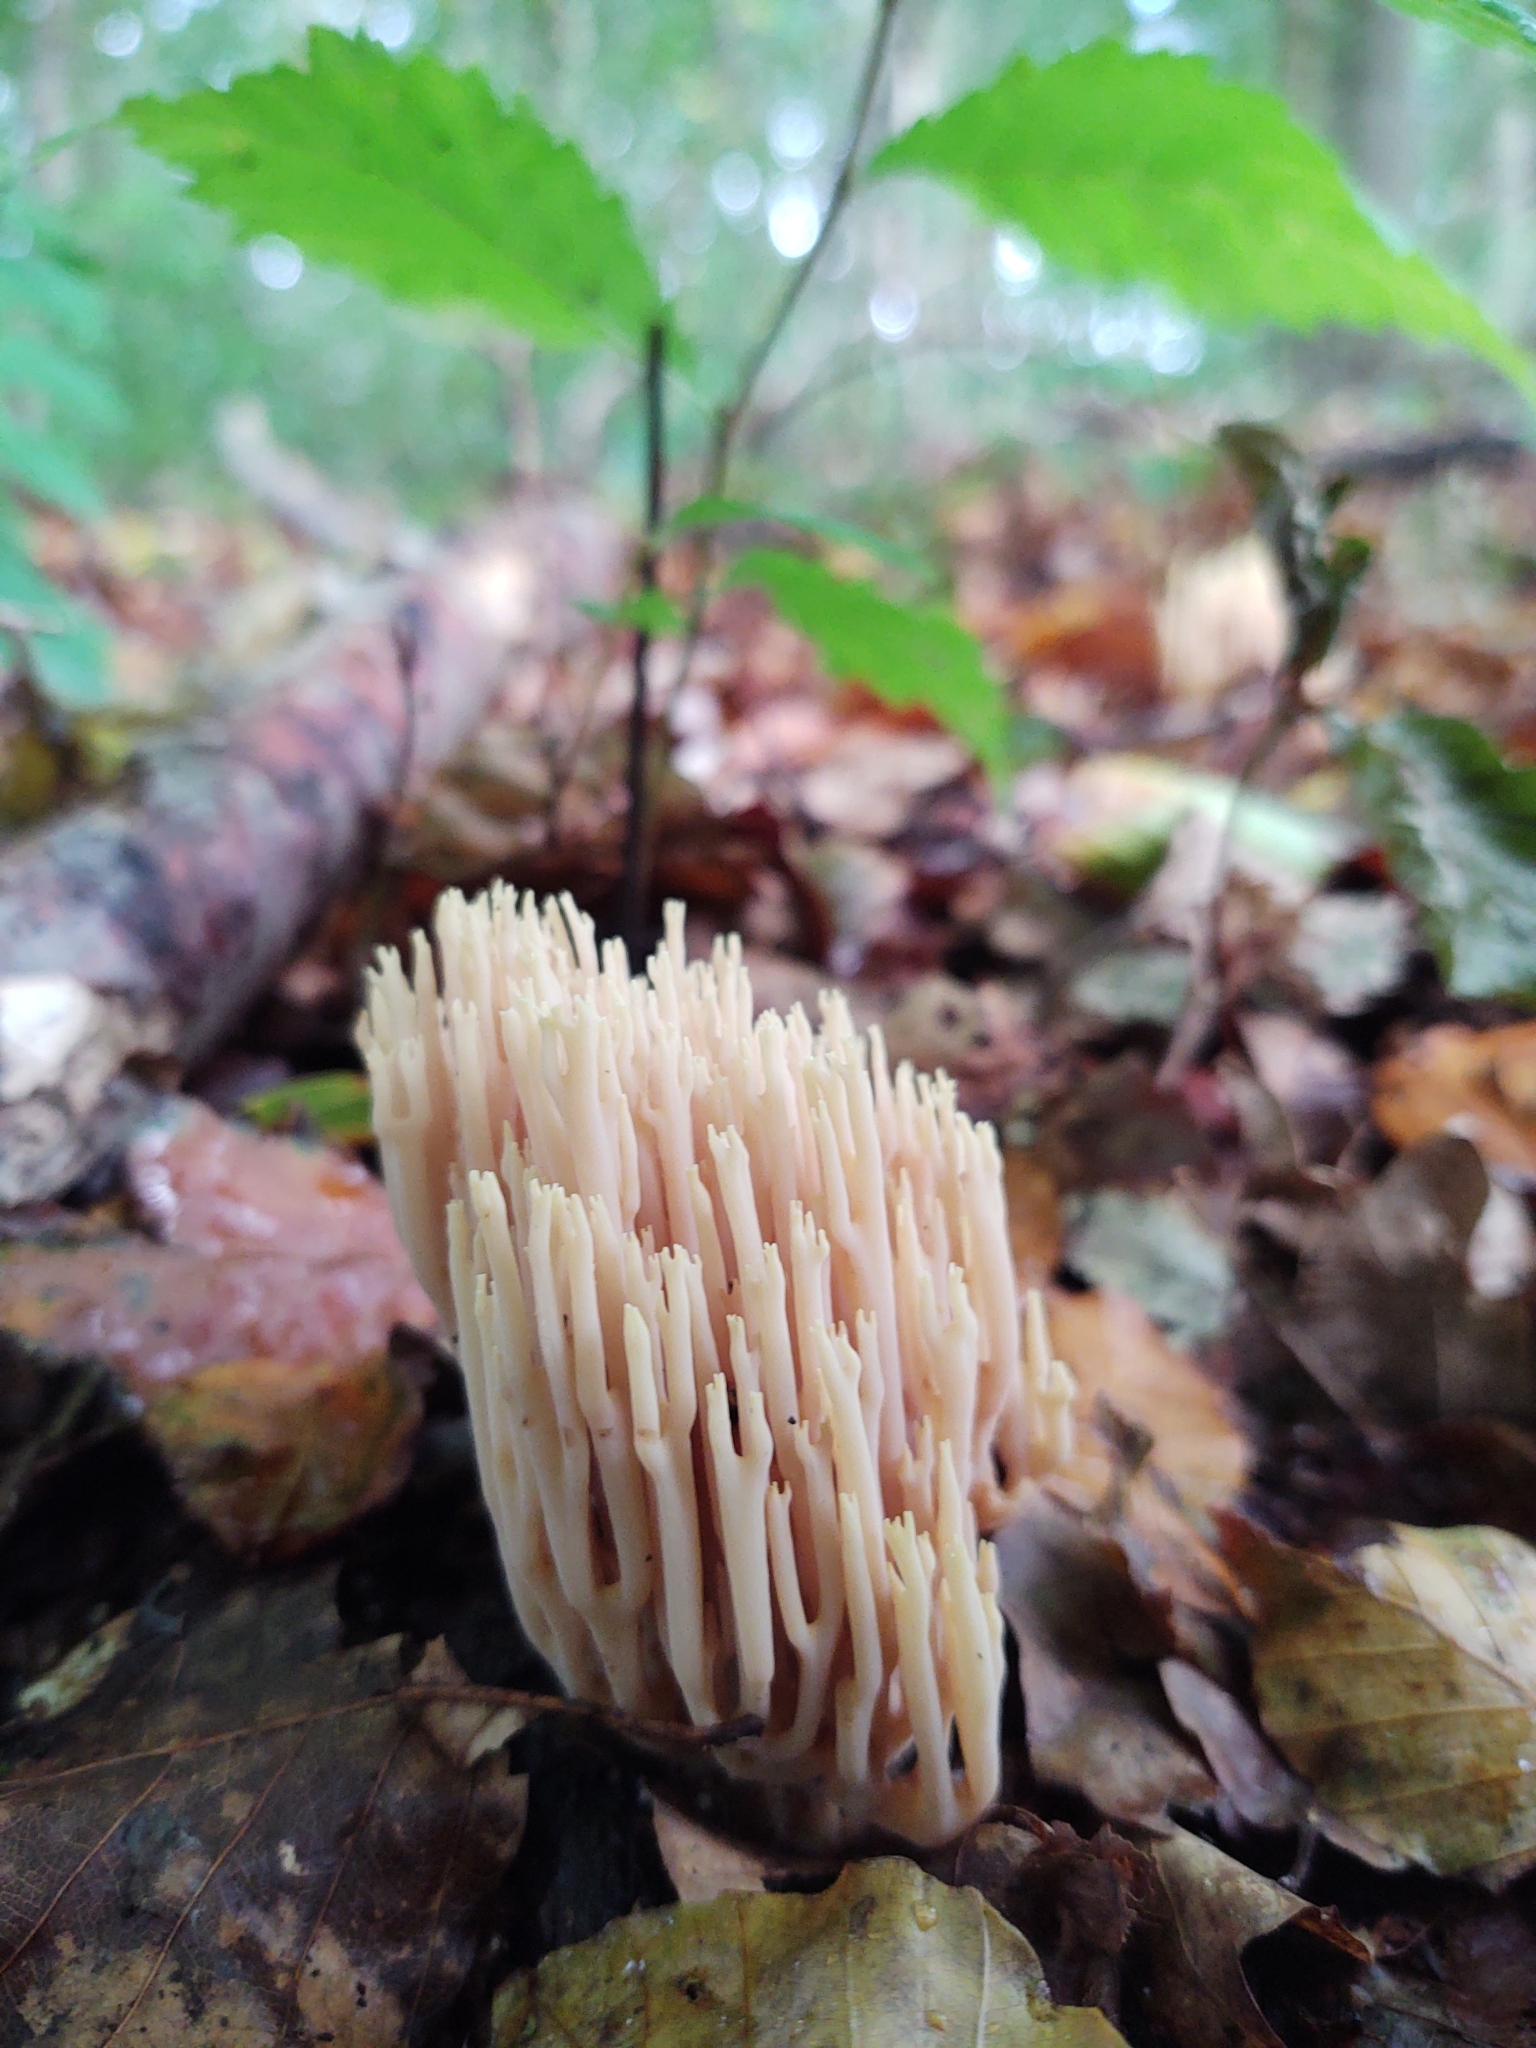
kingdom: Fungi
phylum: Basidiomycota
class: Agaricomycetes
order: Gomphales
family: Gomphaceae
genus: Ramaria
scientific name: Ramaria stricta
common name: Upright coral
